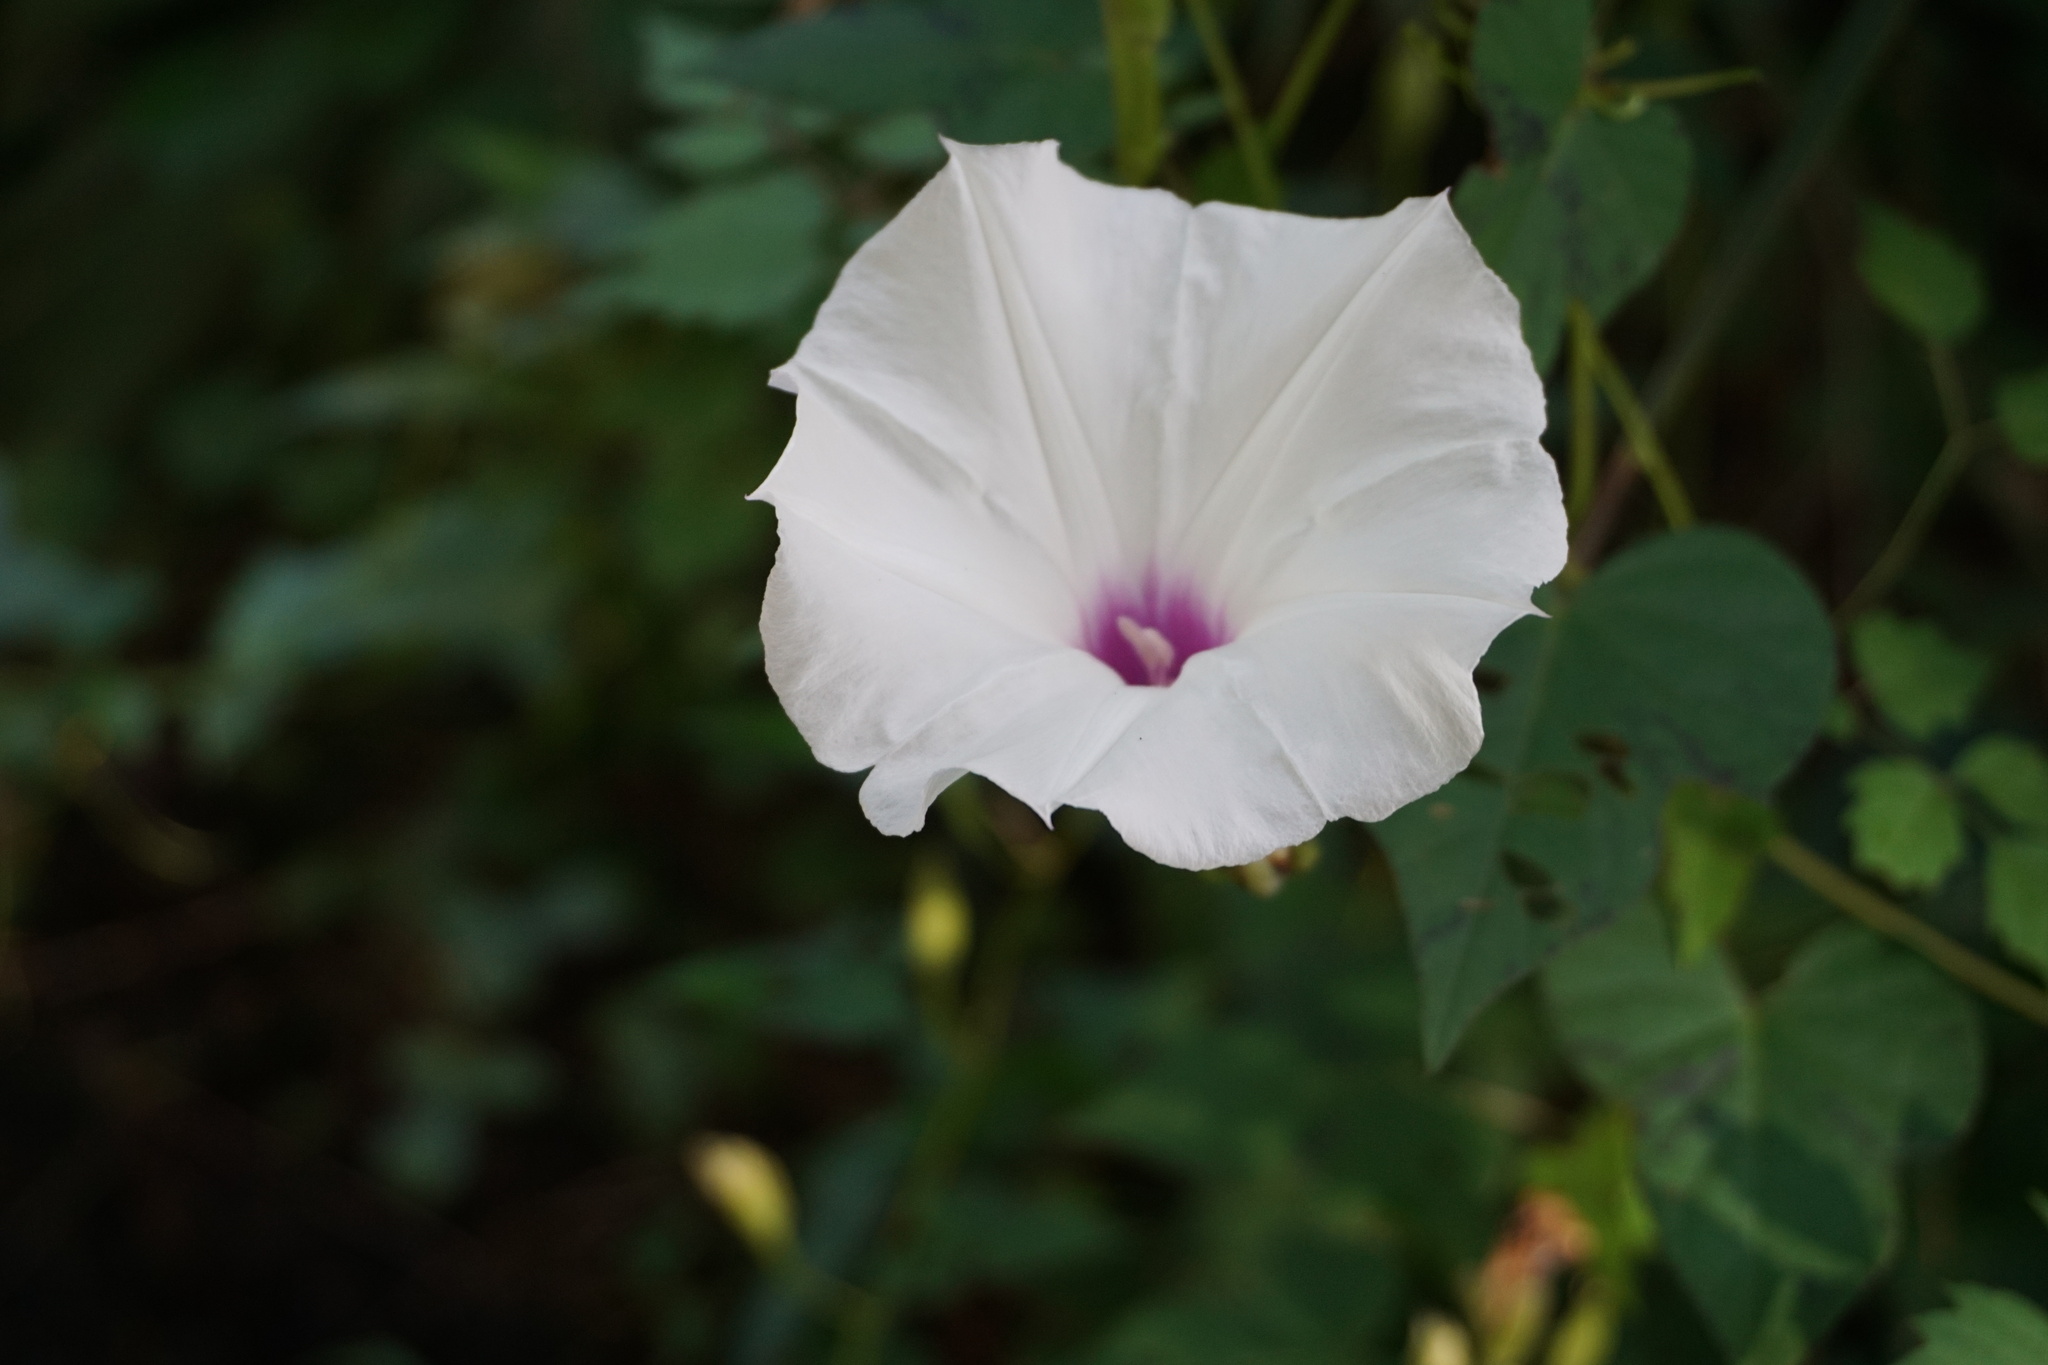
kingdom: Plantae
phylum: Tracheophyta
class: Magnoliopsida
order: Solanales
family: Convolvulaceae
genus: Ipomoea
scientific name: Ipomoea pandurata
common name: Man-of-the-earth
